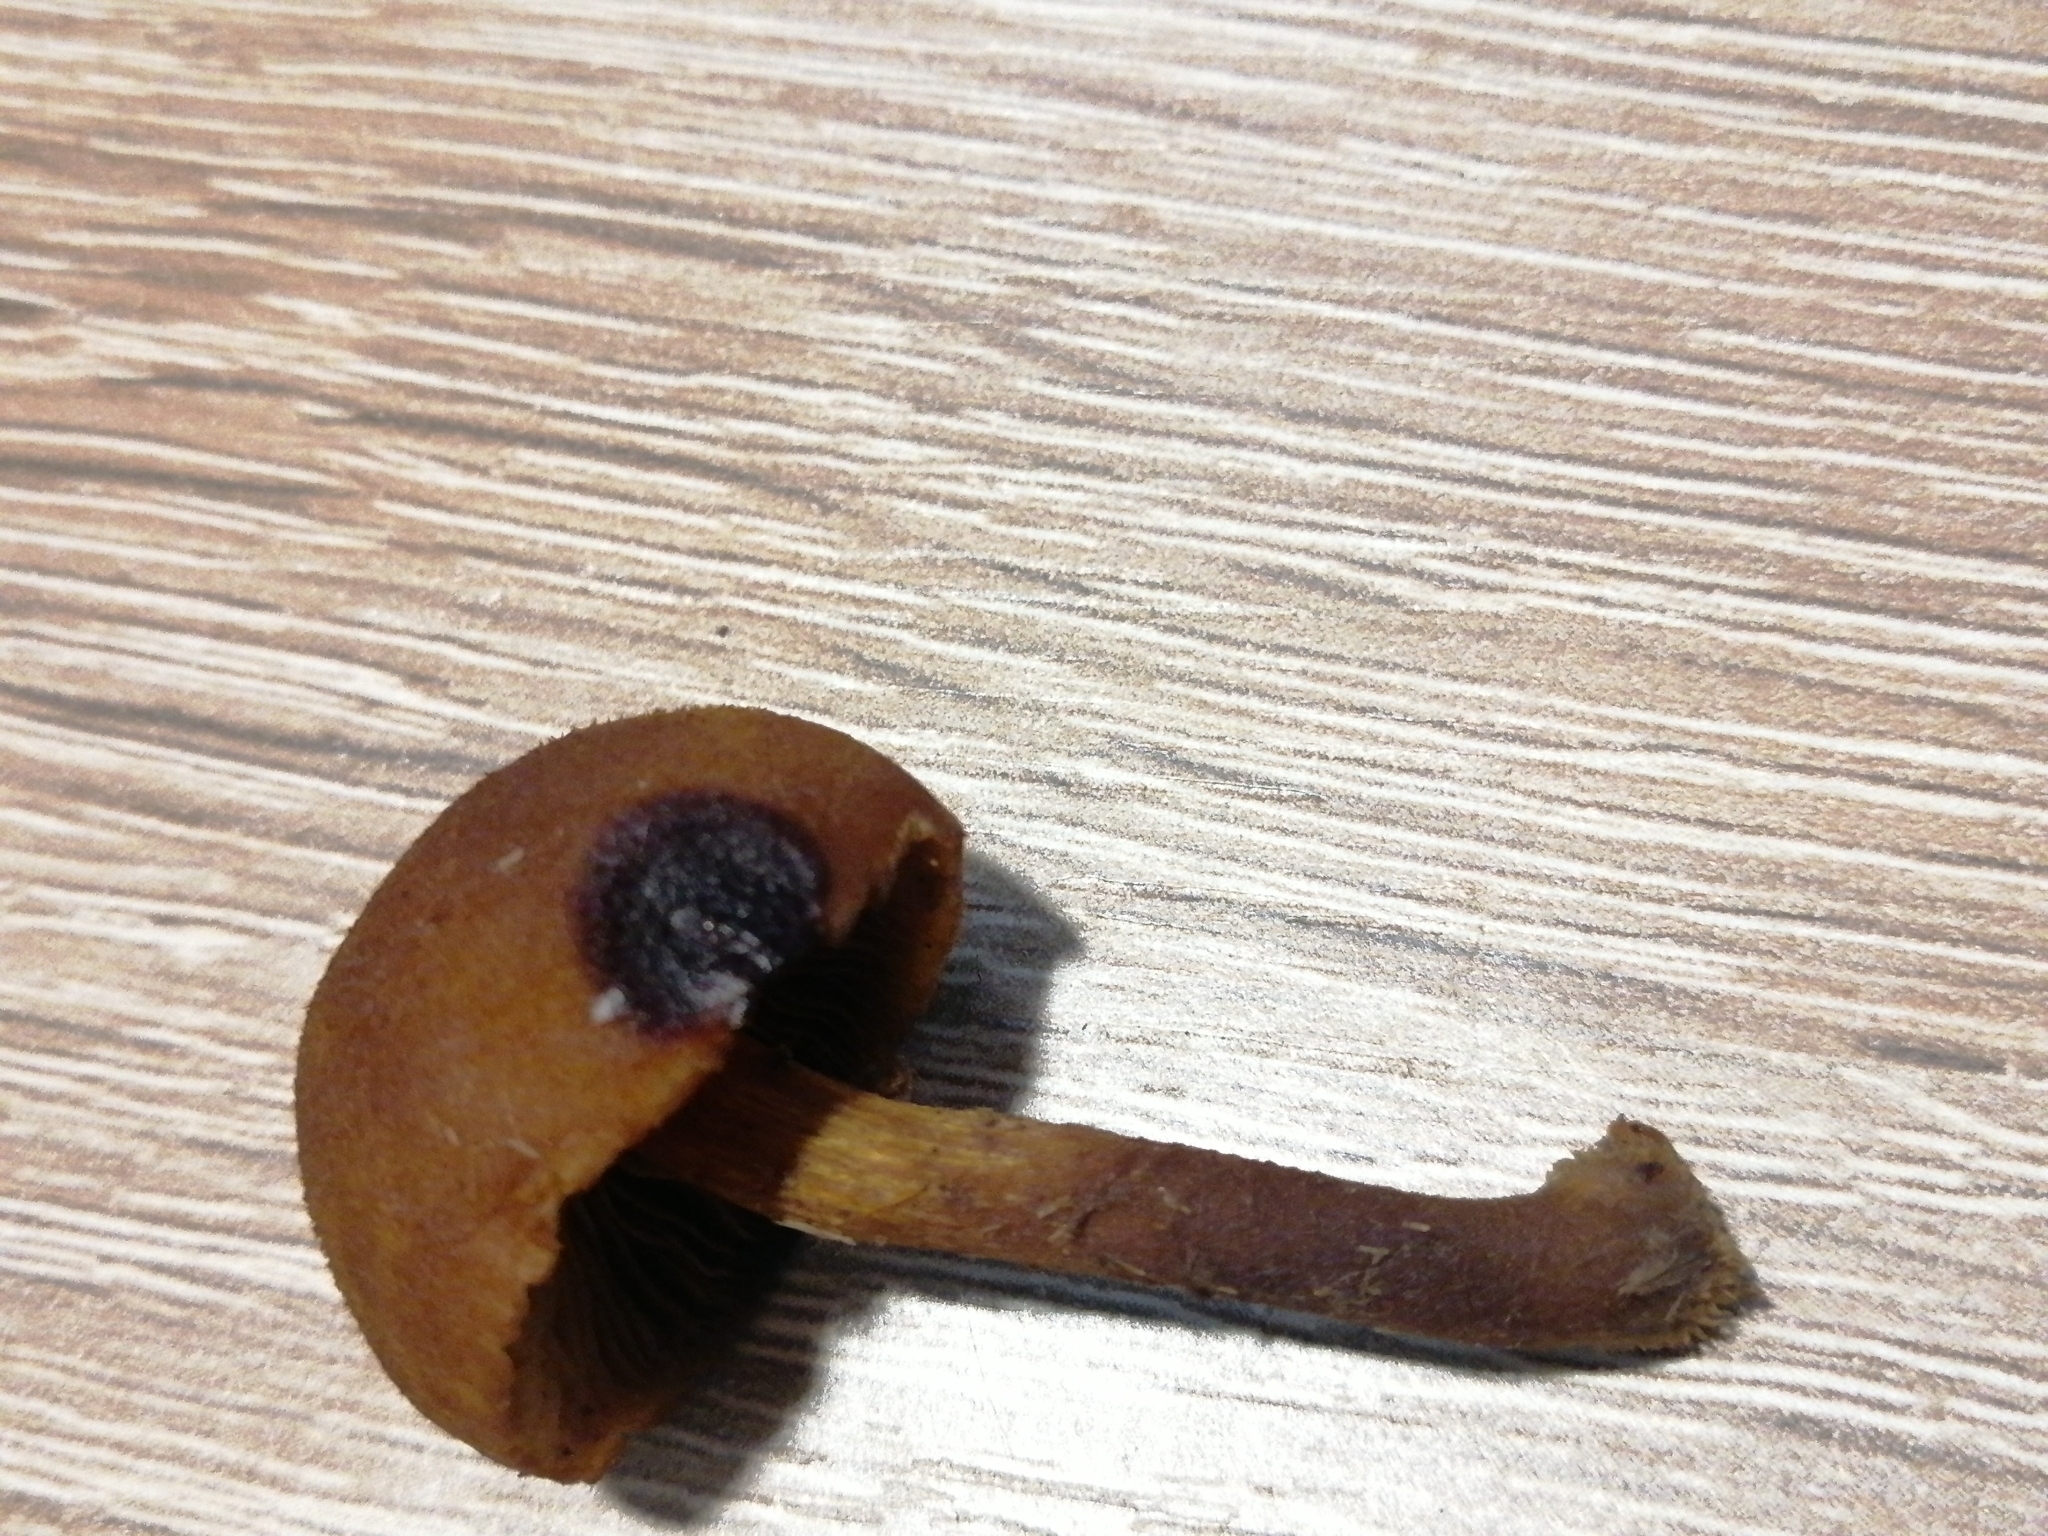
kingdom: Fungi
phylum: Basidiomycota
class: Agaricomycetes
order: Agaricales
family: Tubariaceae
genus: Flammulaster
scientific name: Flammulaster limulatus
